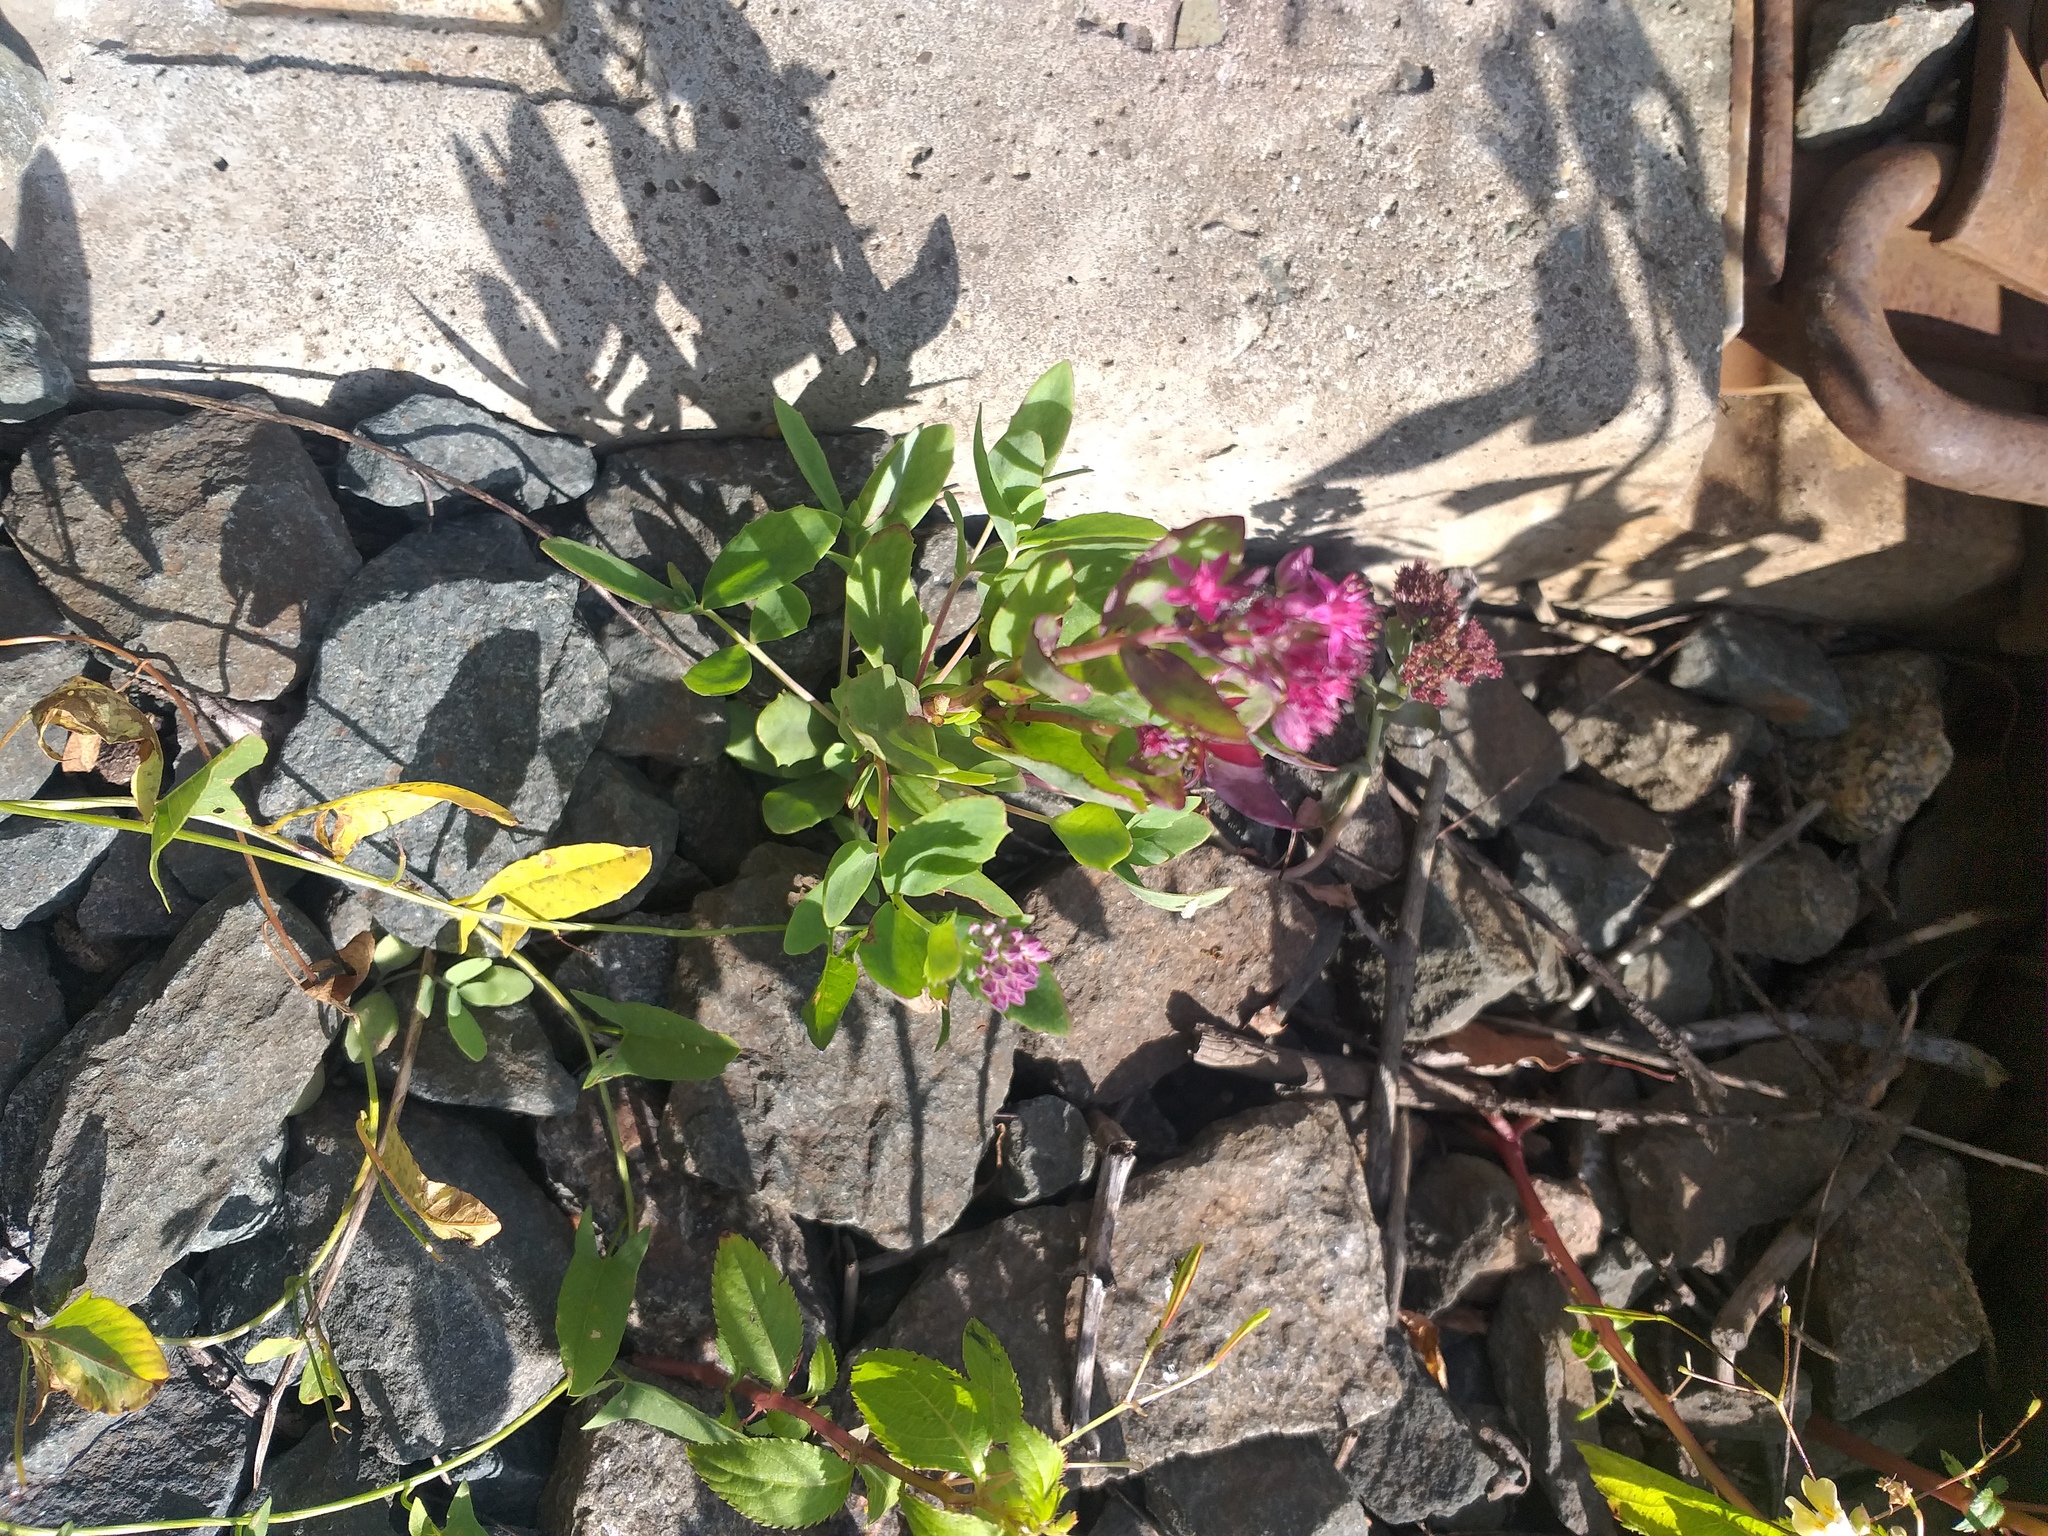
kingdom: Plantae
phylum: Tracheophyta
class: Magnoliopsida
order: Saxifragales
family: Crassulaceae
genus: Hylotelephium
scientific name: Hylotelephium telephium
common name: Live-forever
